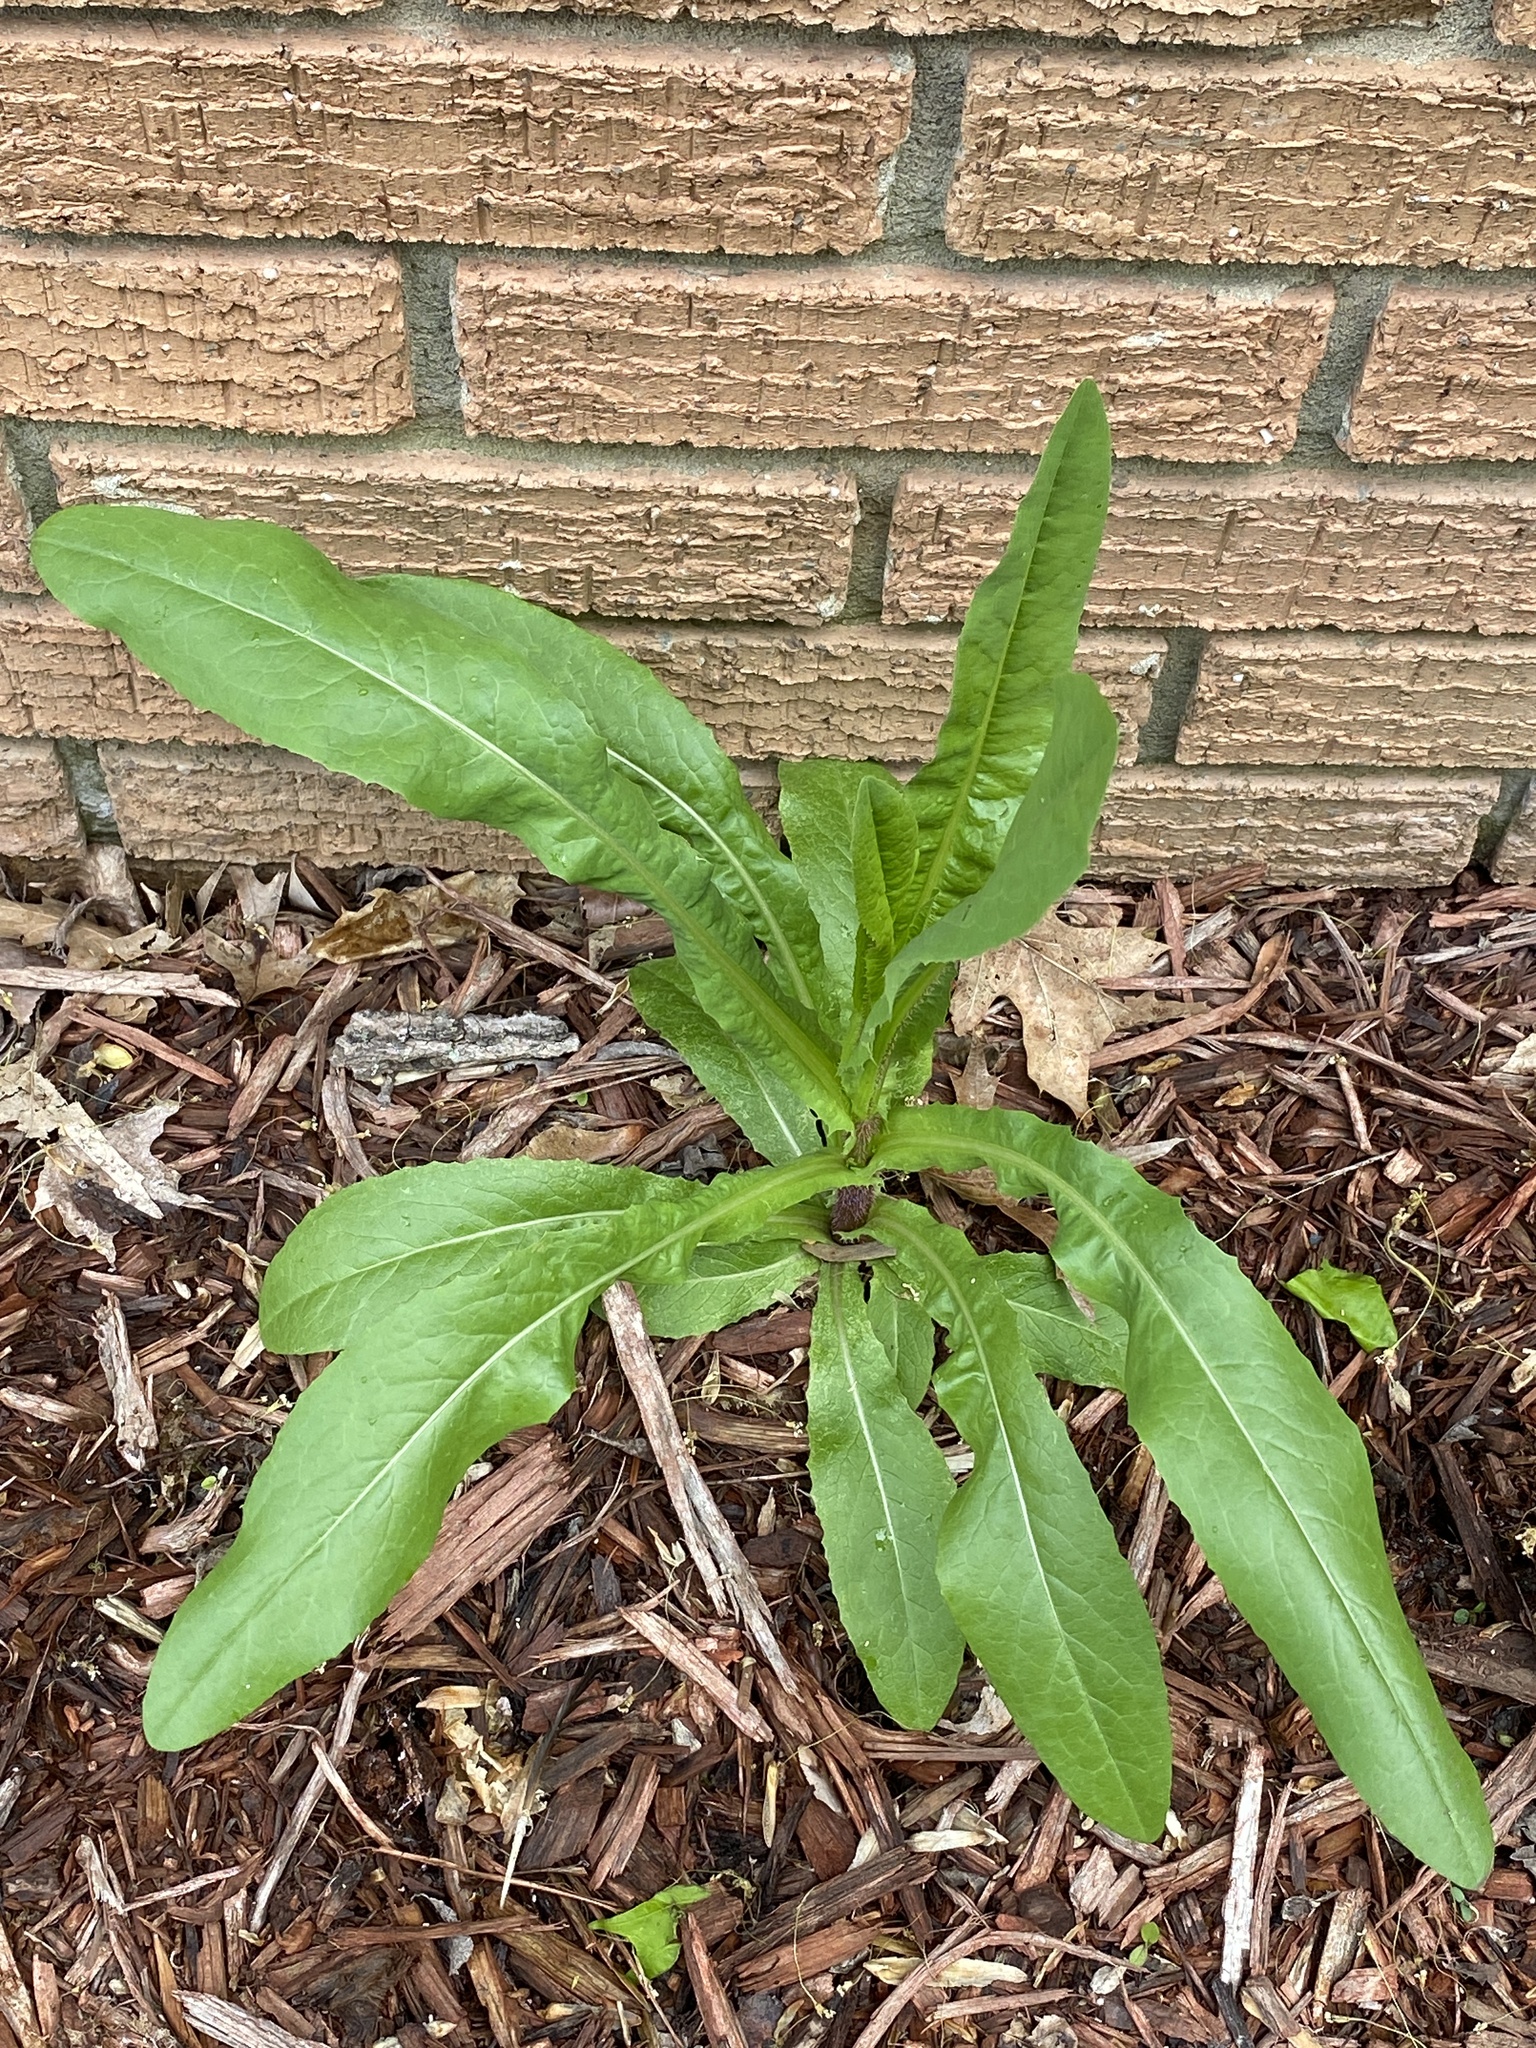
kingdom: Plantae
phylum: Tracheophyta
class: Magnoliopsida
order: Asterales
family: Asteraceae
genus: Lactuca
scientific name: Lactuca serriola
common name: Prickly lettuce
